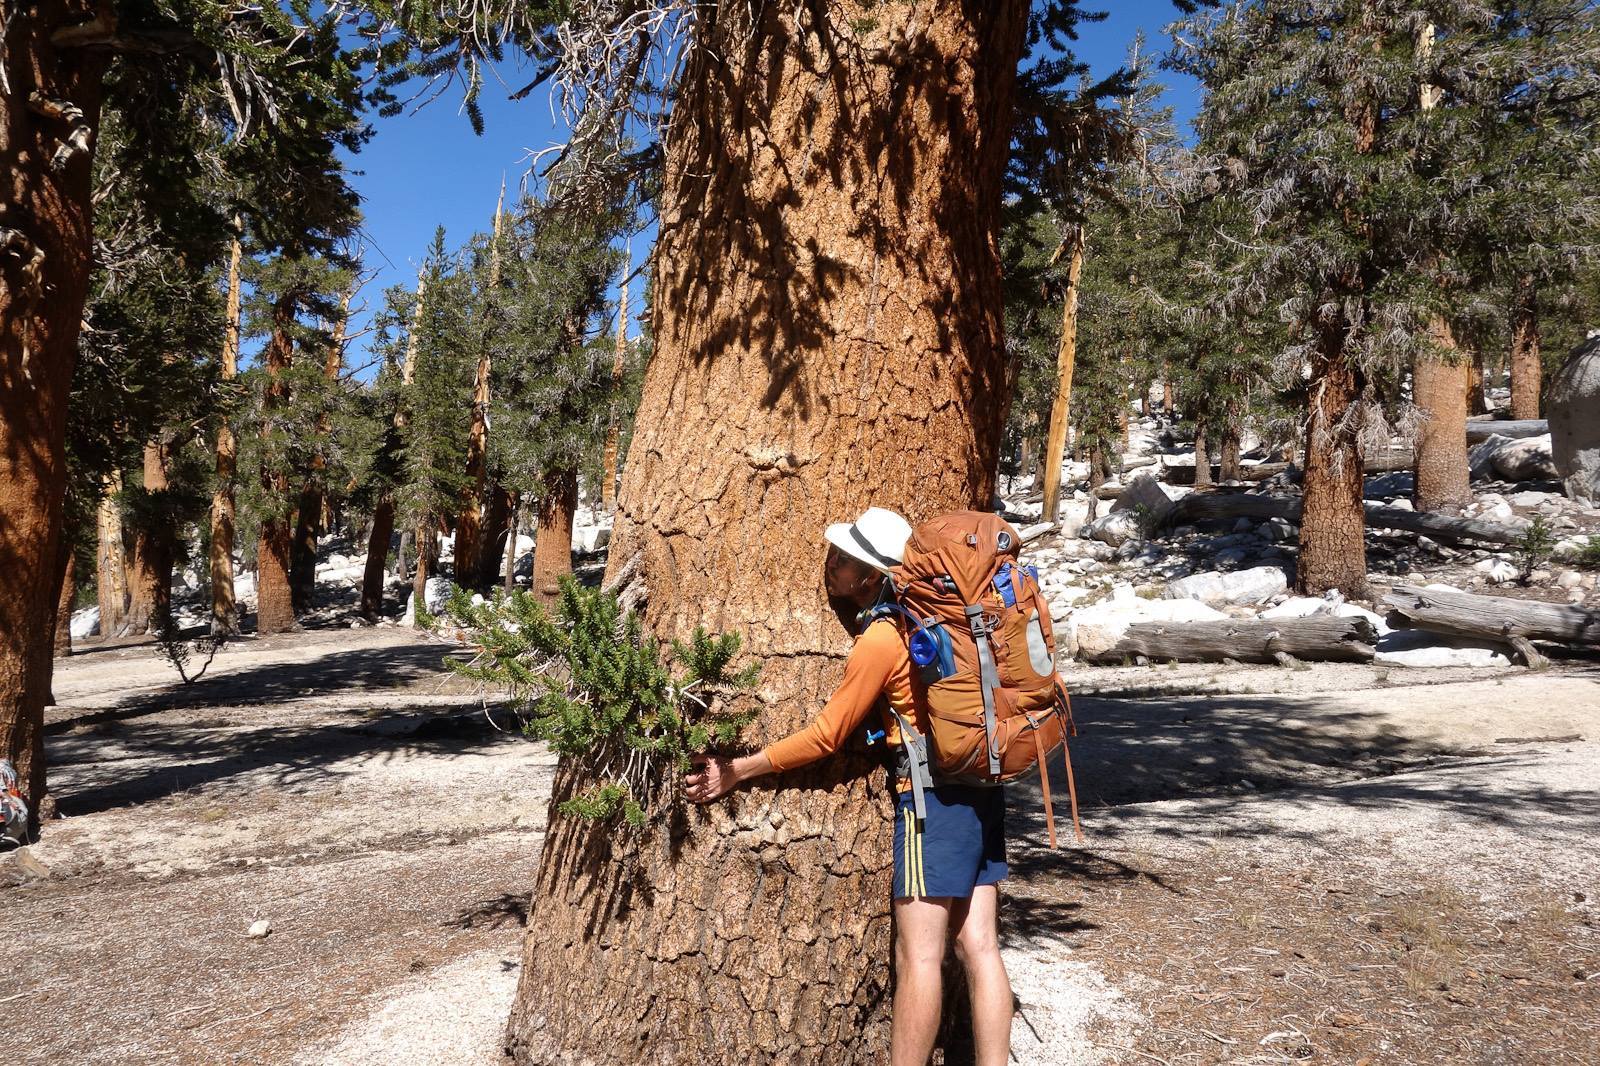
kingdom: Plantae
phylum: Tracheophyta
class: Pinopsida
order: Pinales
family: Pinaceae
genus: Pinus
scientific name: Pinus balfouriana
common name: Foxtail pine
